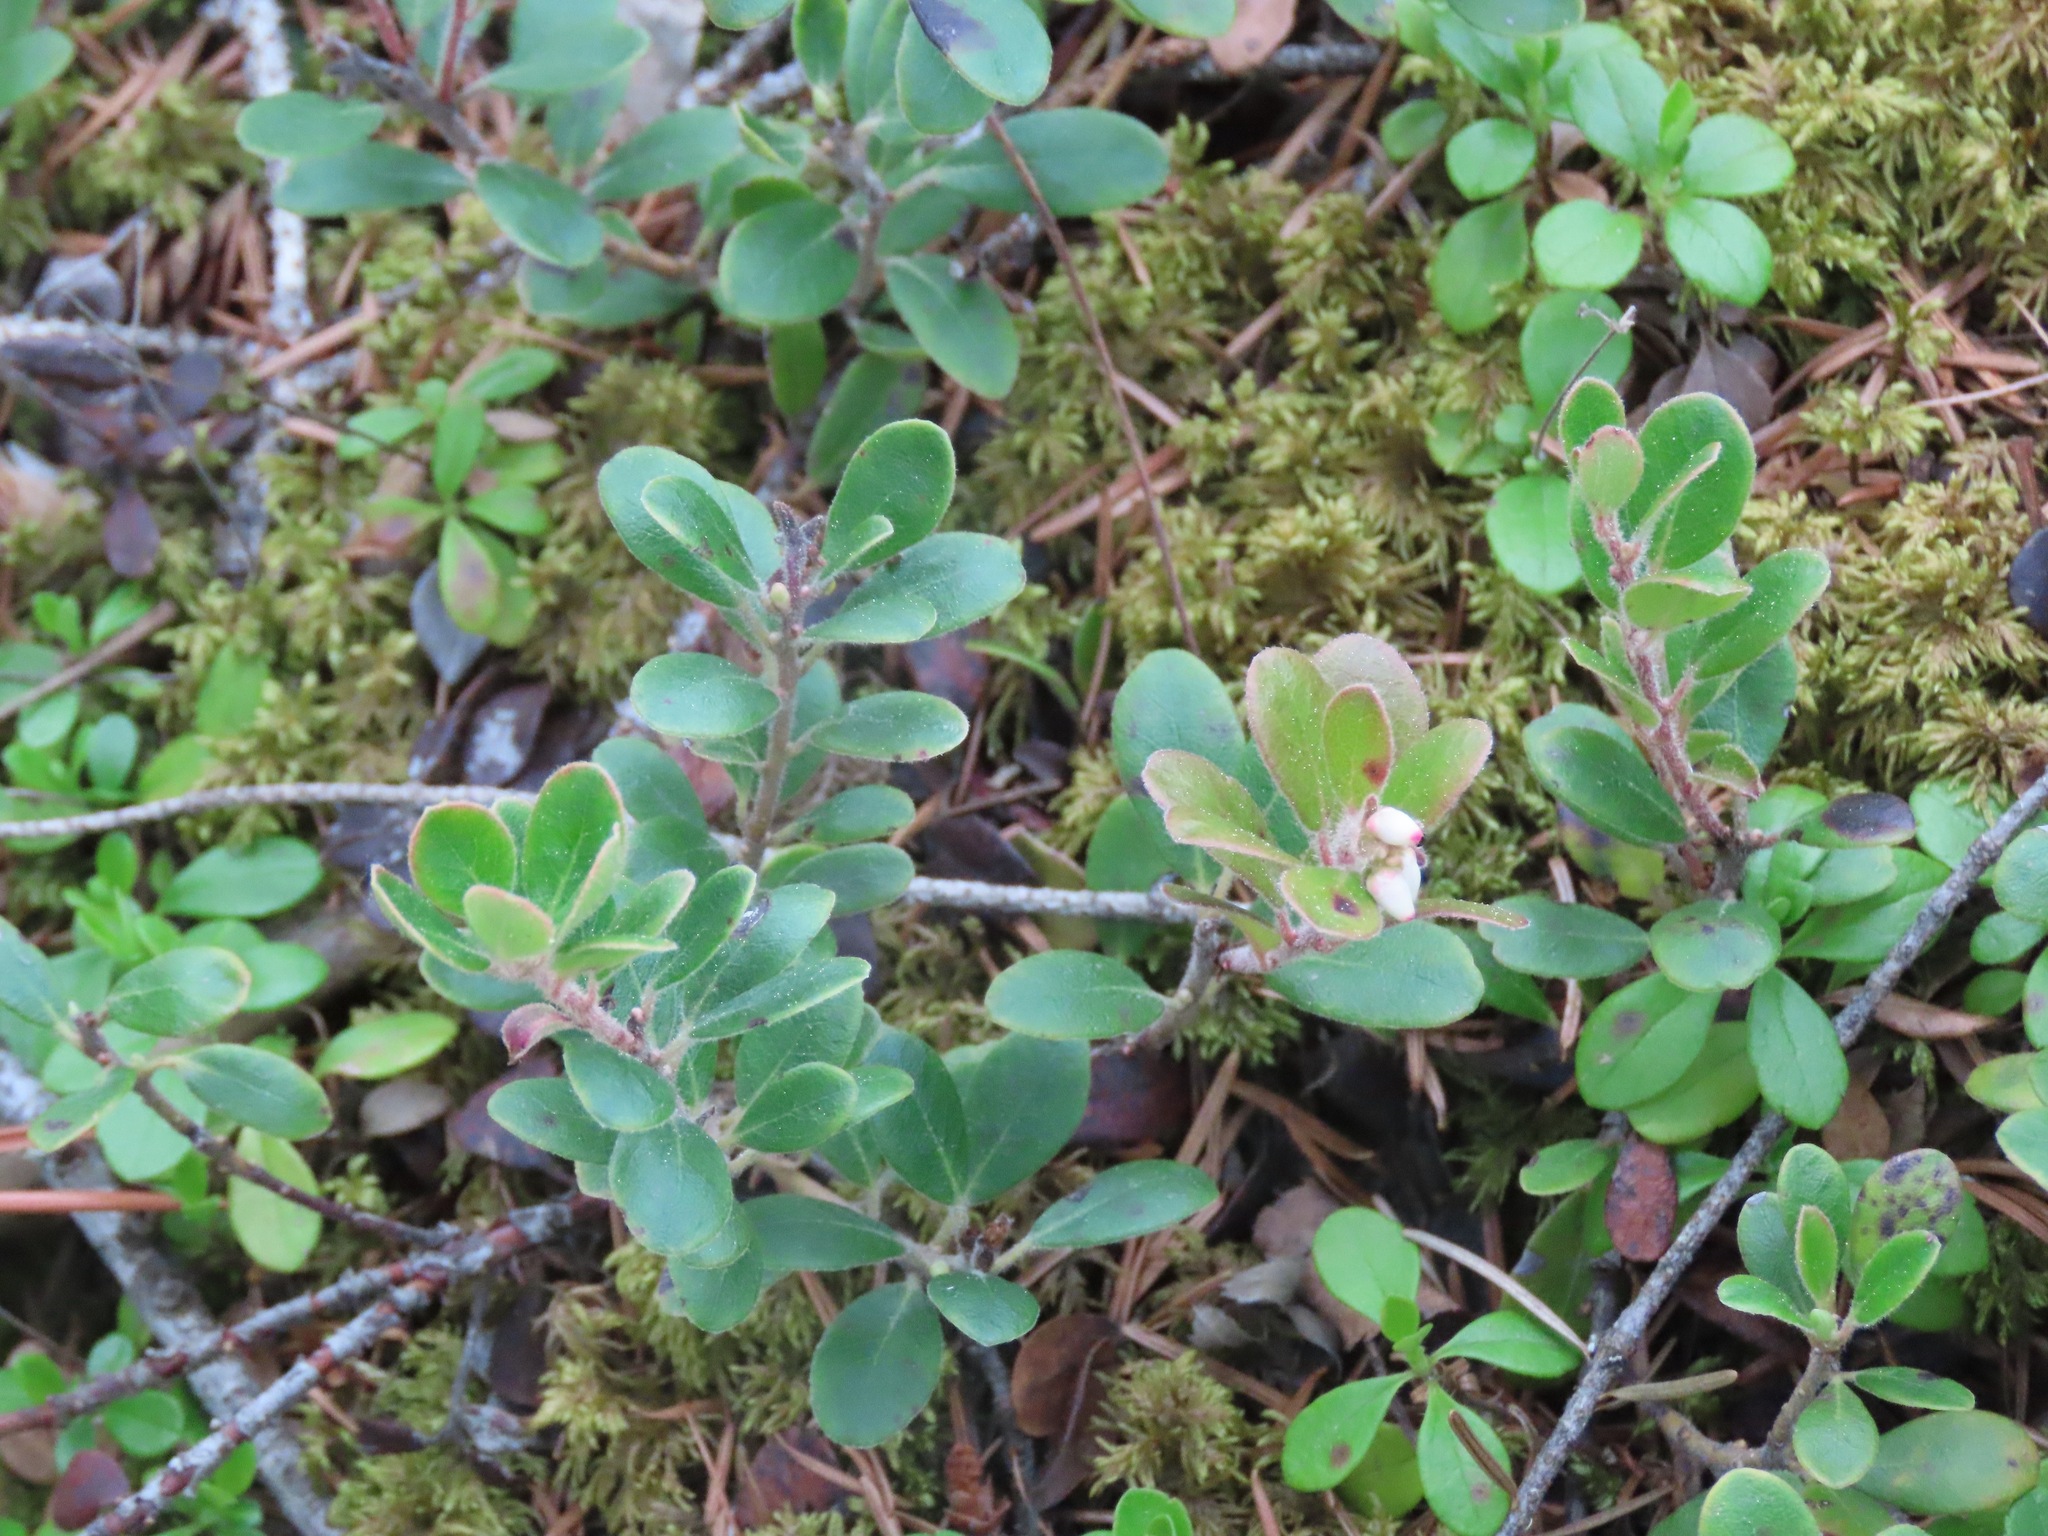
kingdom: Plantae
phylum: Tracheophyta
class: Magnoliopsida
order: Ericales
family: Ericaceae
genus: Arctostaphylos
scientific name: Arctostaphylos uva-ursi
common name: Bearberry
